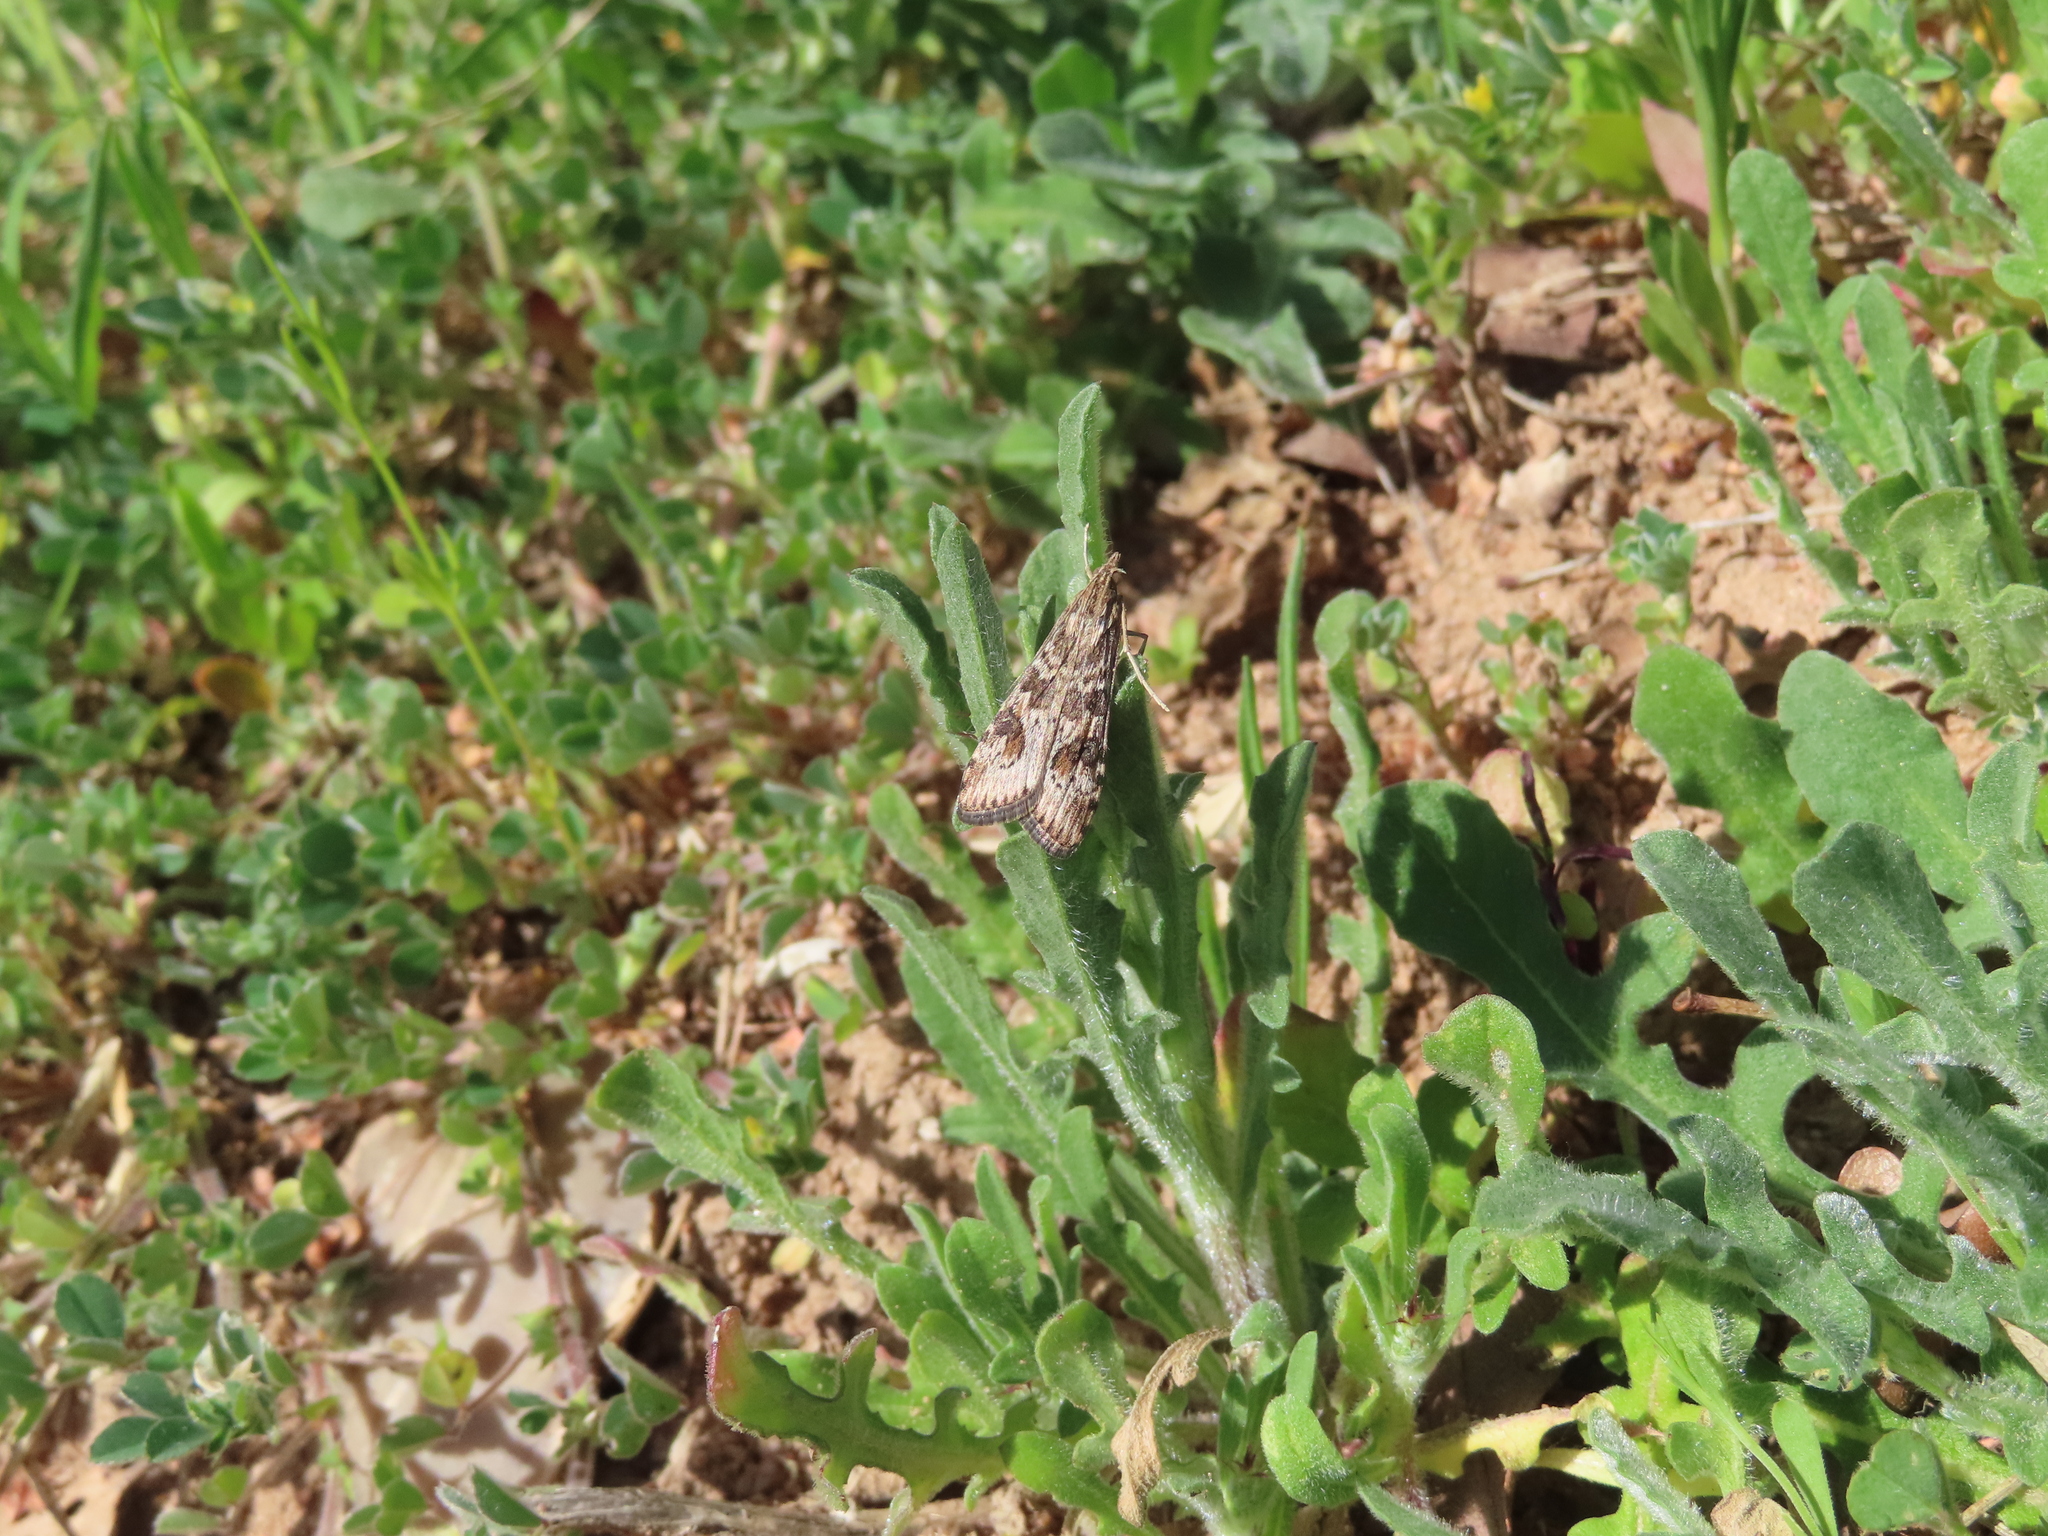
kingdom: Animalia
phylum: Arthropoda
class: Insecta
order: Lepidoptera
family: Crambidae
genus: Nomophila
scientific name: Nomophila nearctica
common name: American rush veneer
